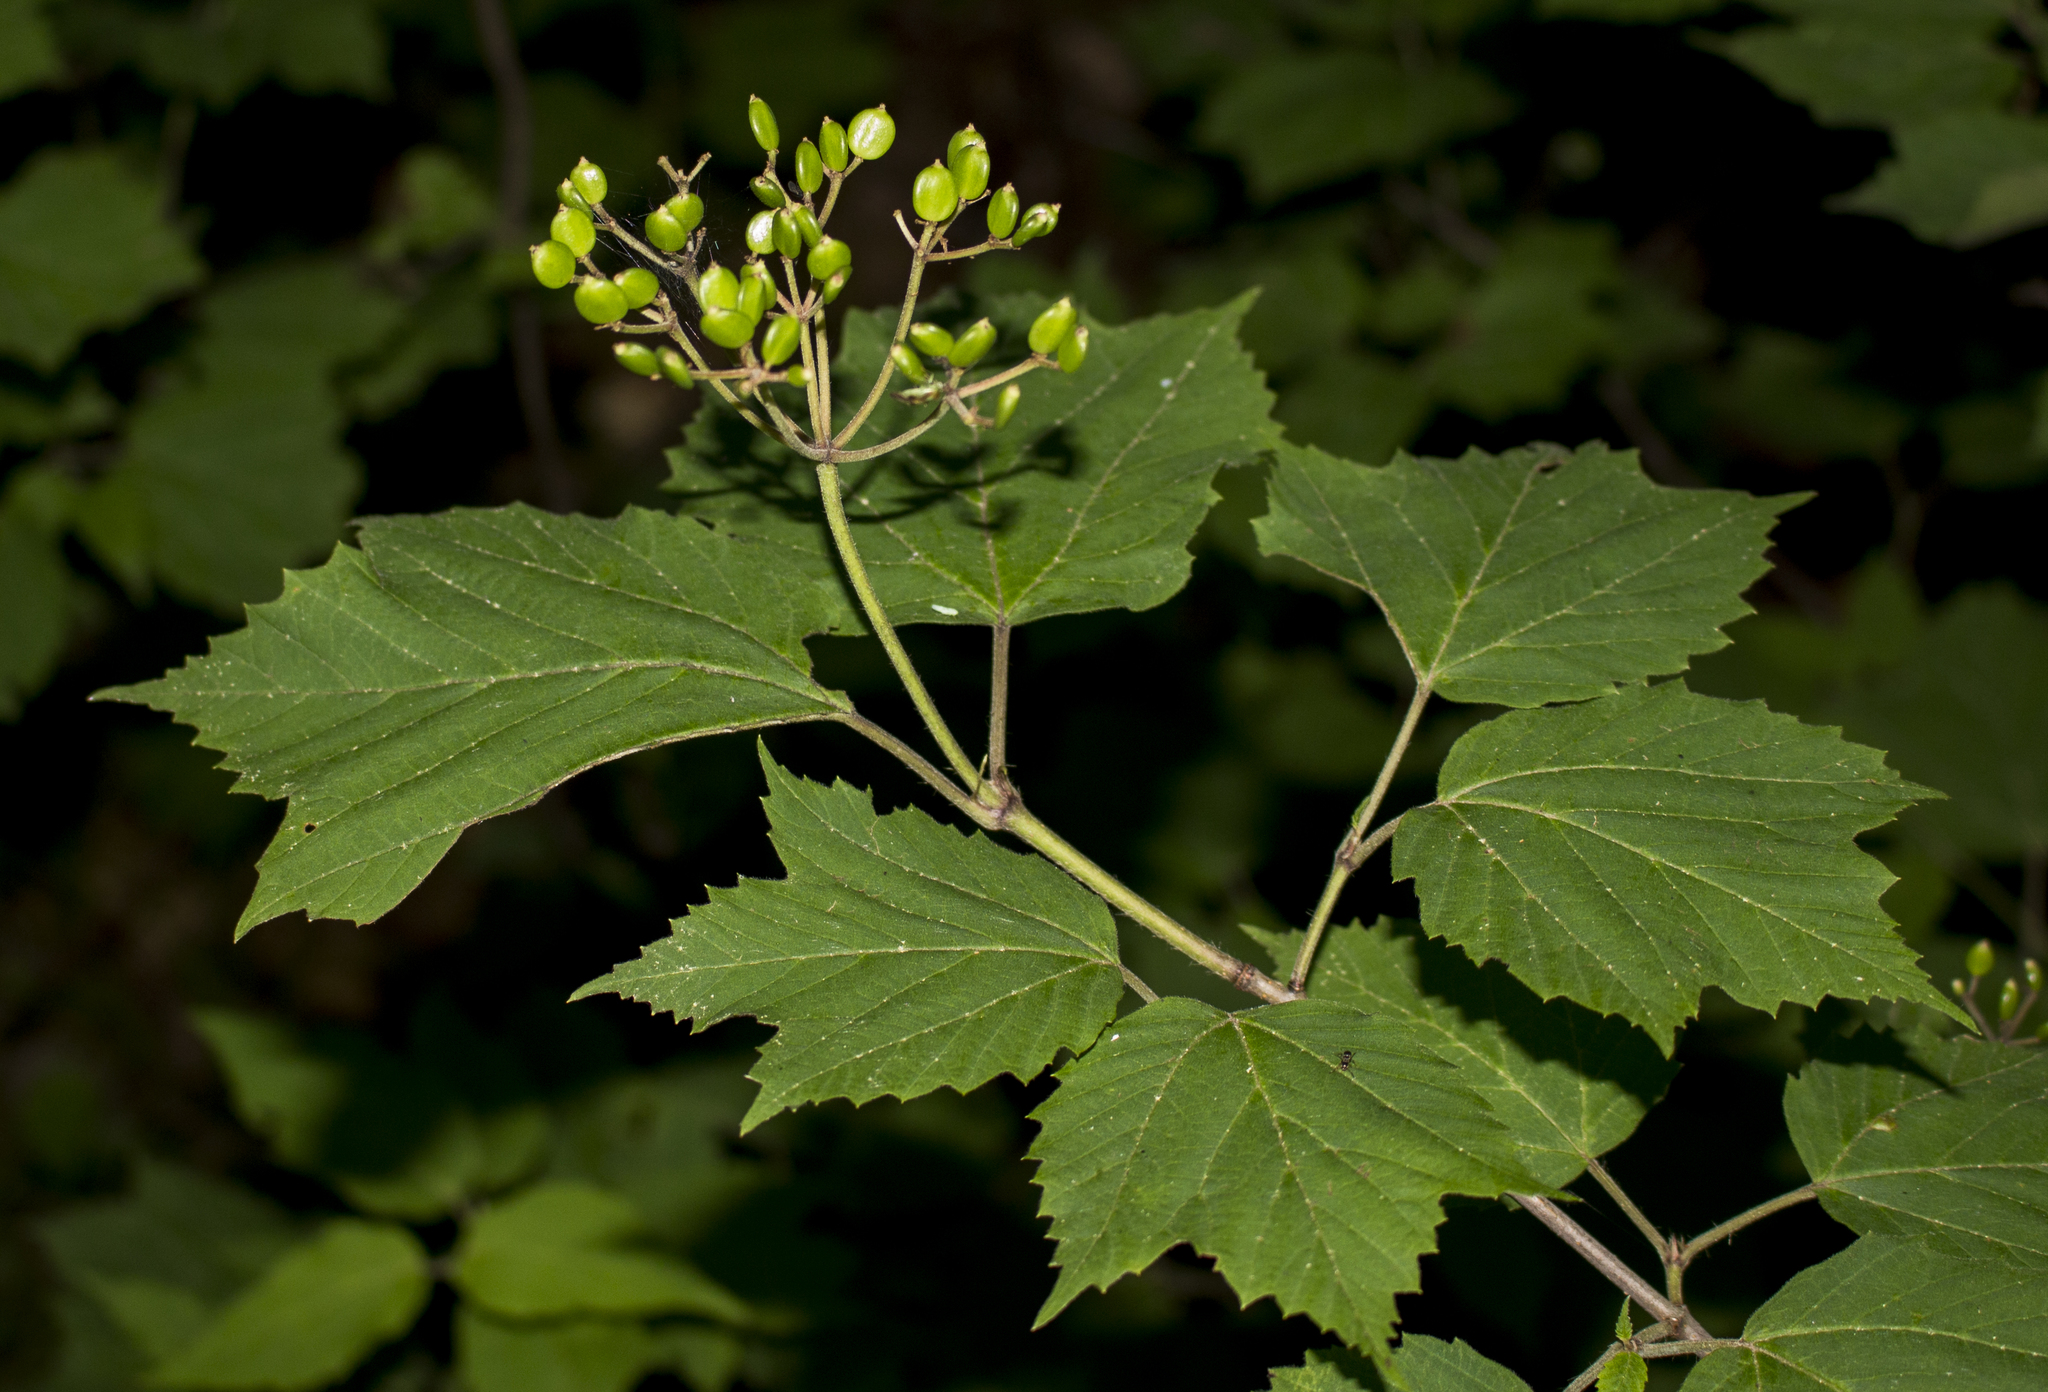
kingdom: Plantae
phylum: Tracheophyta
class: Magnoliopsida
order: Dipsacales
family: Viburnaceae
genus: Viburnum
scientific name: Viburnum acerifolium
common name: Dockmackie
